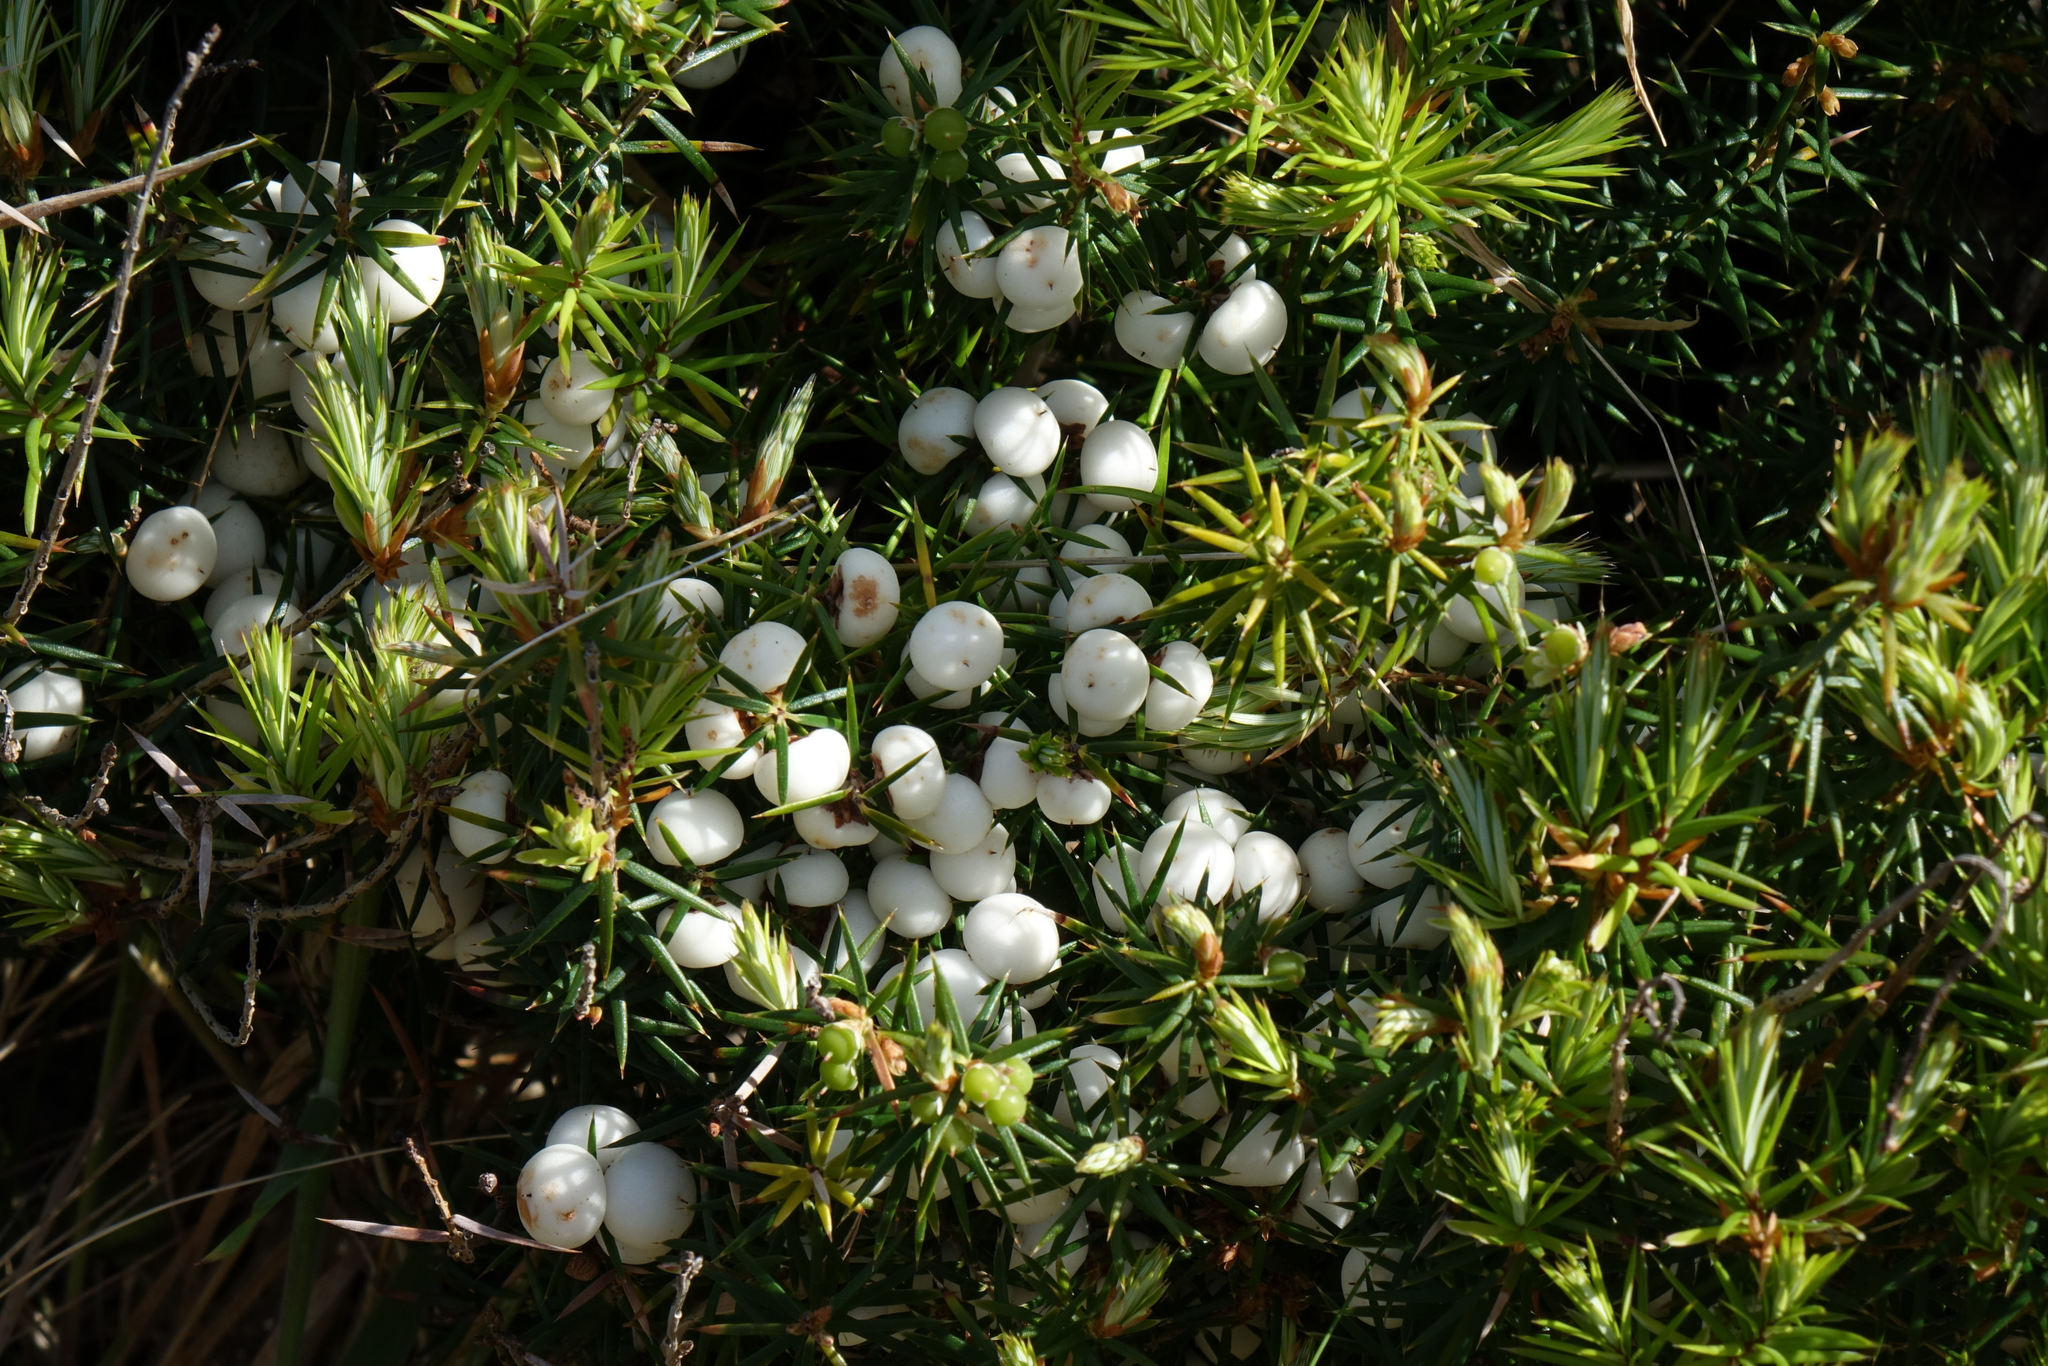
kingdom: Plantae
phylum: Tracheophyta
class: Magnoliopsida
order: Ericales
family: Ericaceae
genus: Leptecophylla
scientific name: Leptecophylla juniperina
